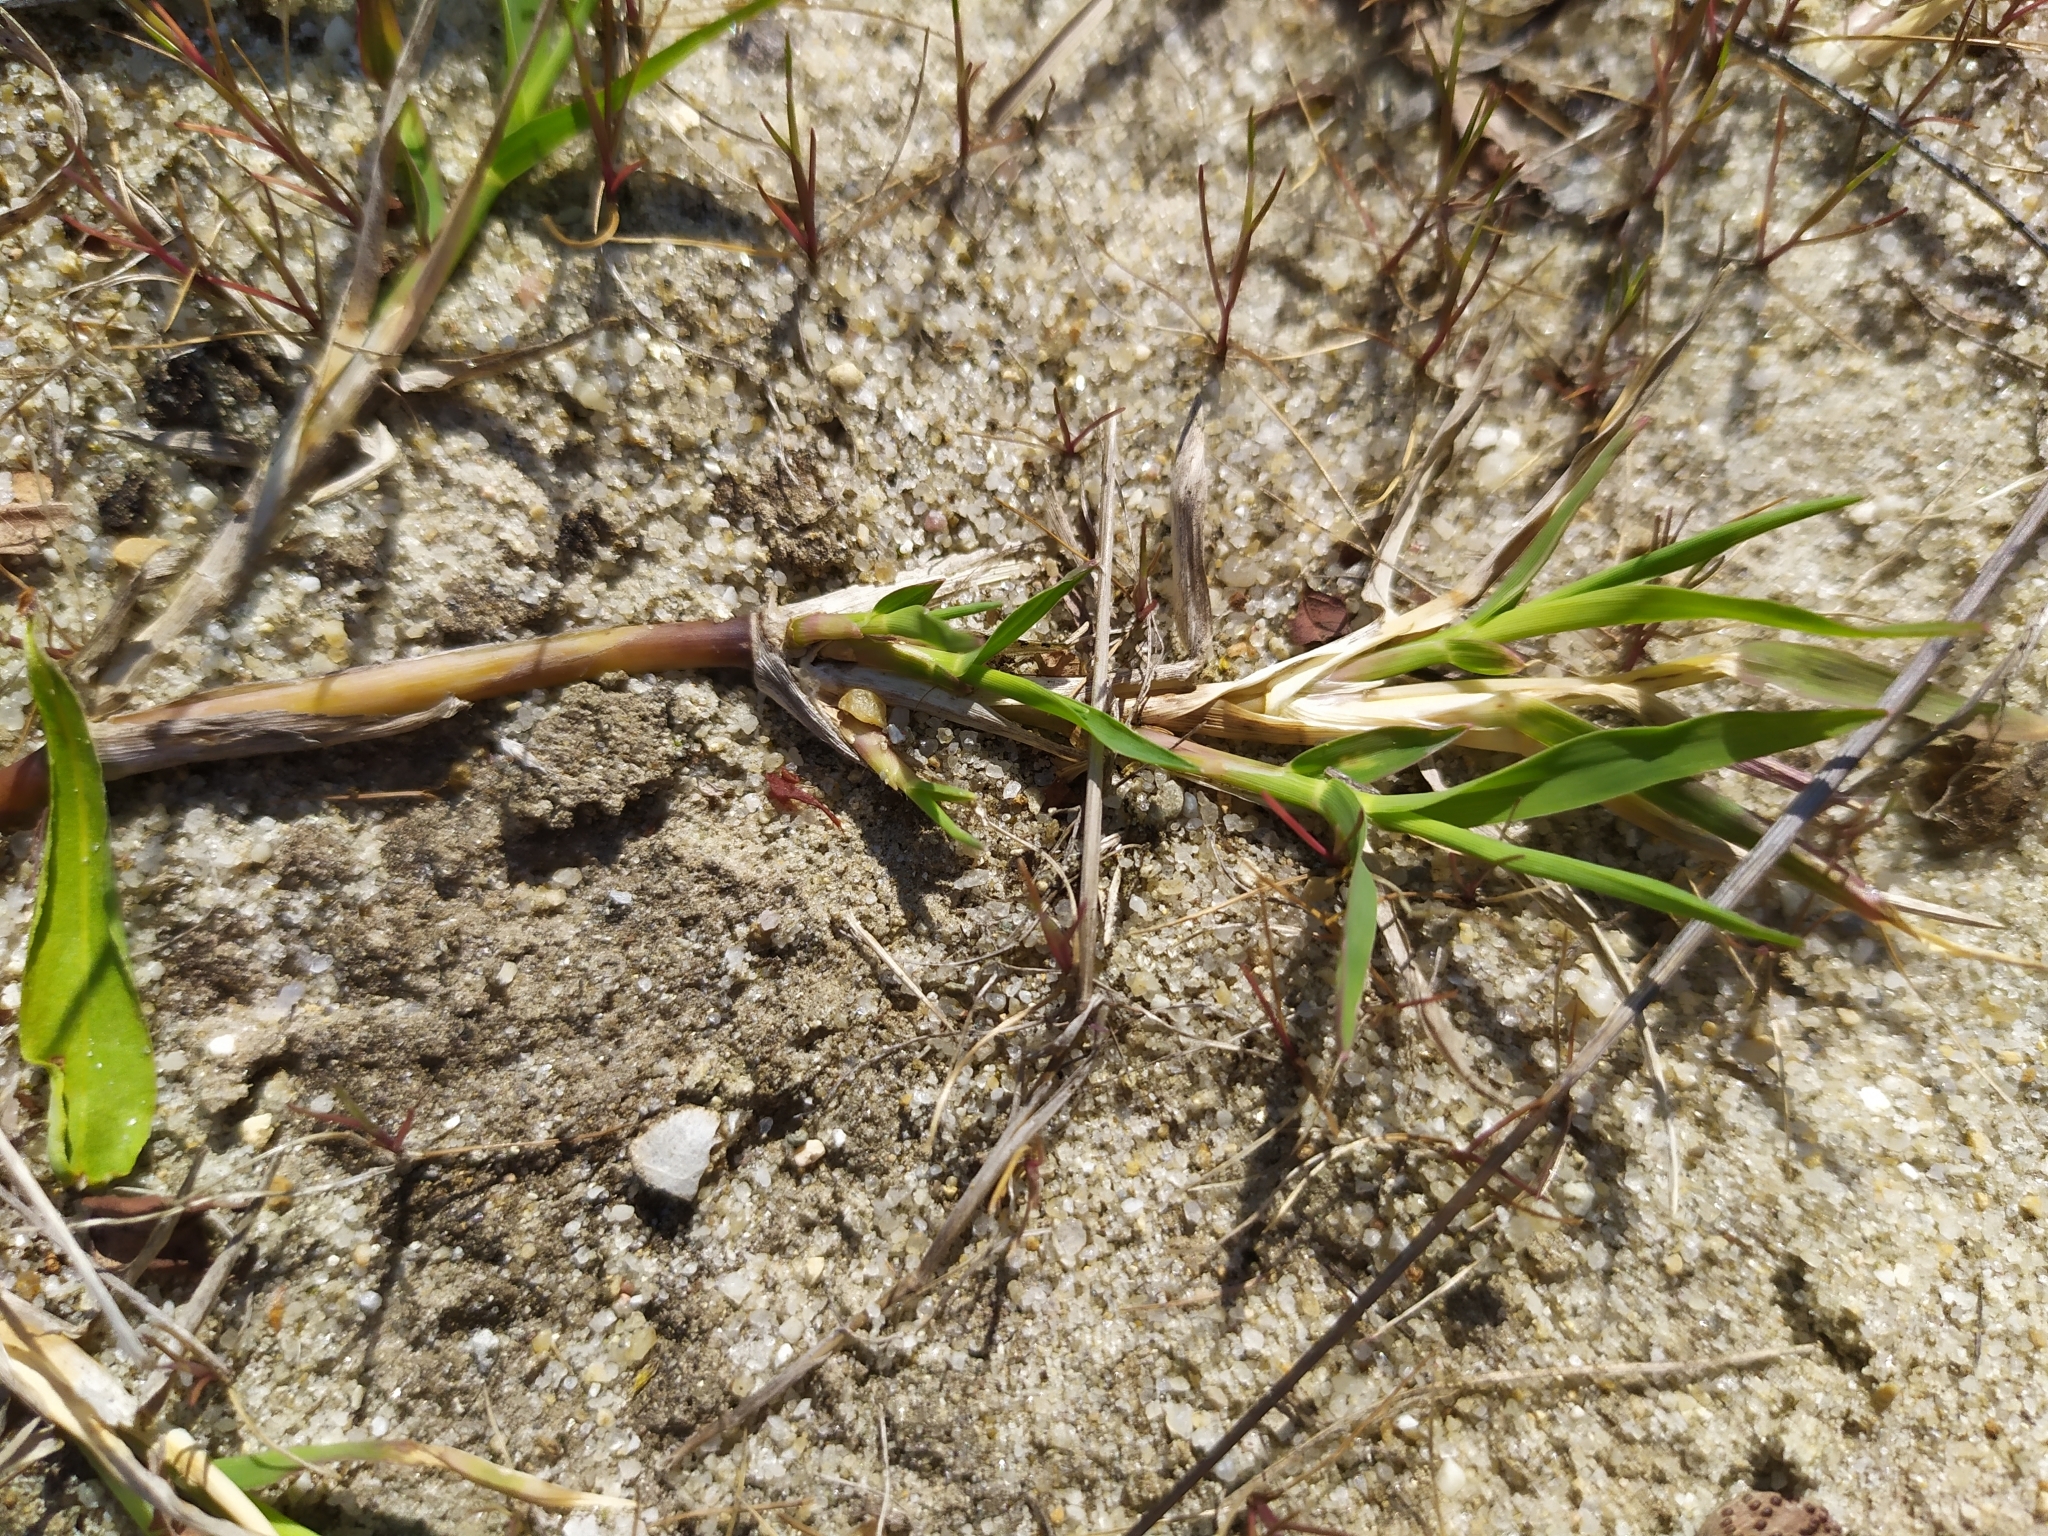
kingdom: Plantae
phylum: Tracheophyta
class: Liliopsida
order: Poales
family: Poaceae
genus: Agrostis
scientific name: Agrostis stolonifera
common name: Creeping bentgrass
